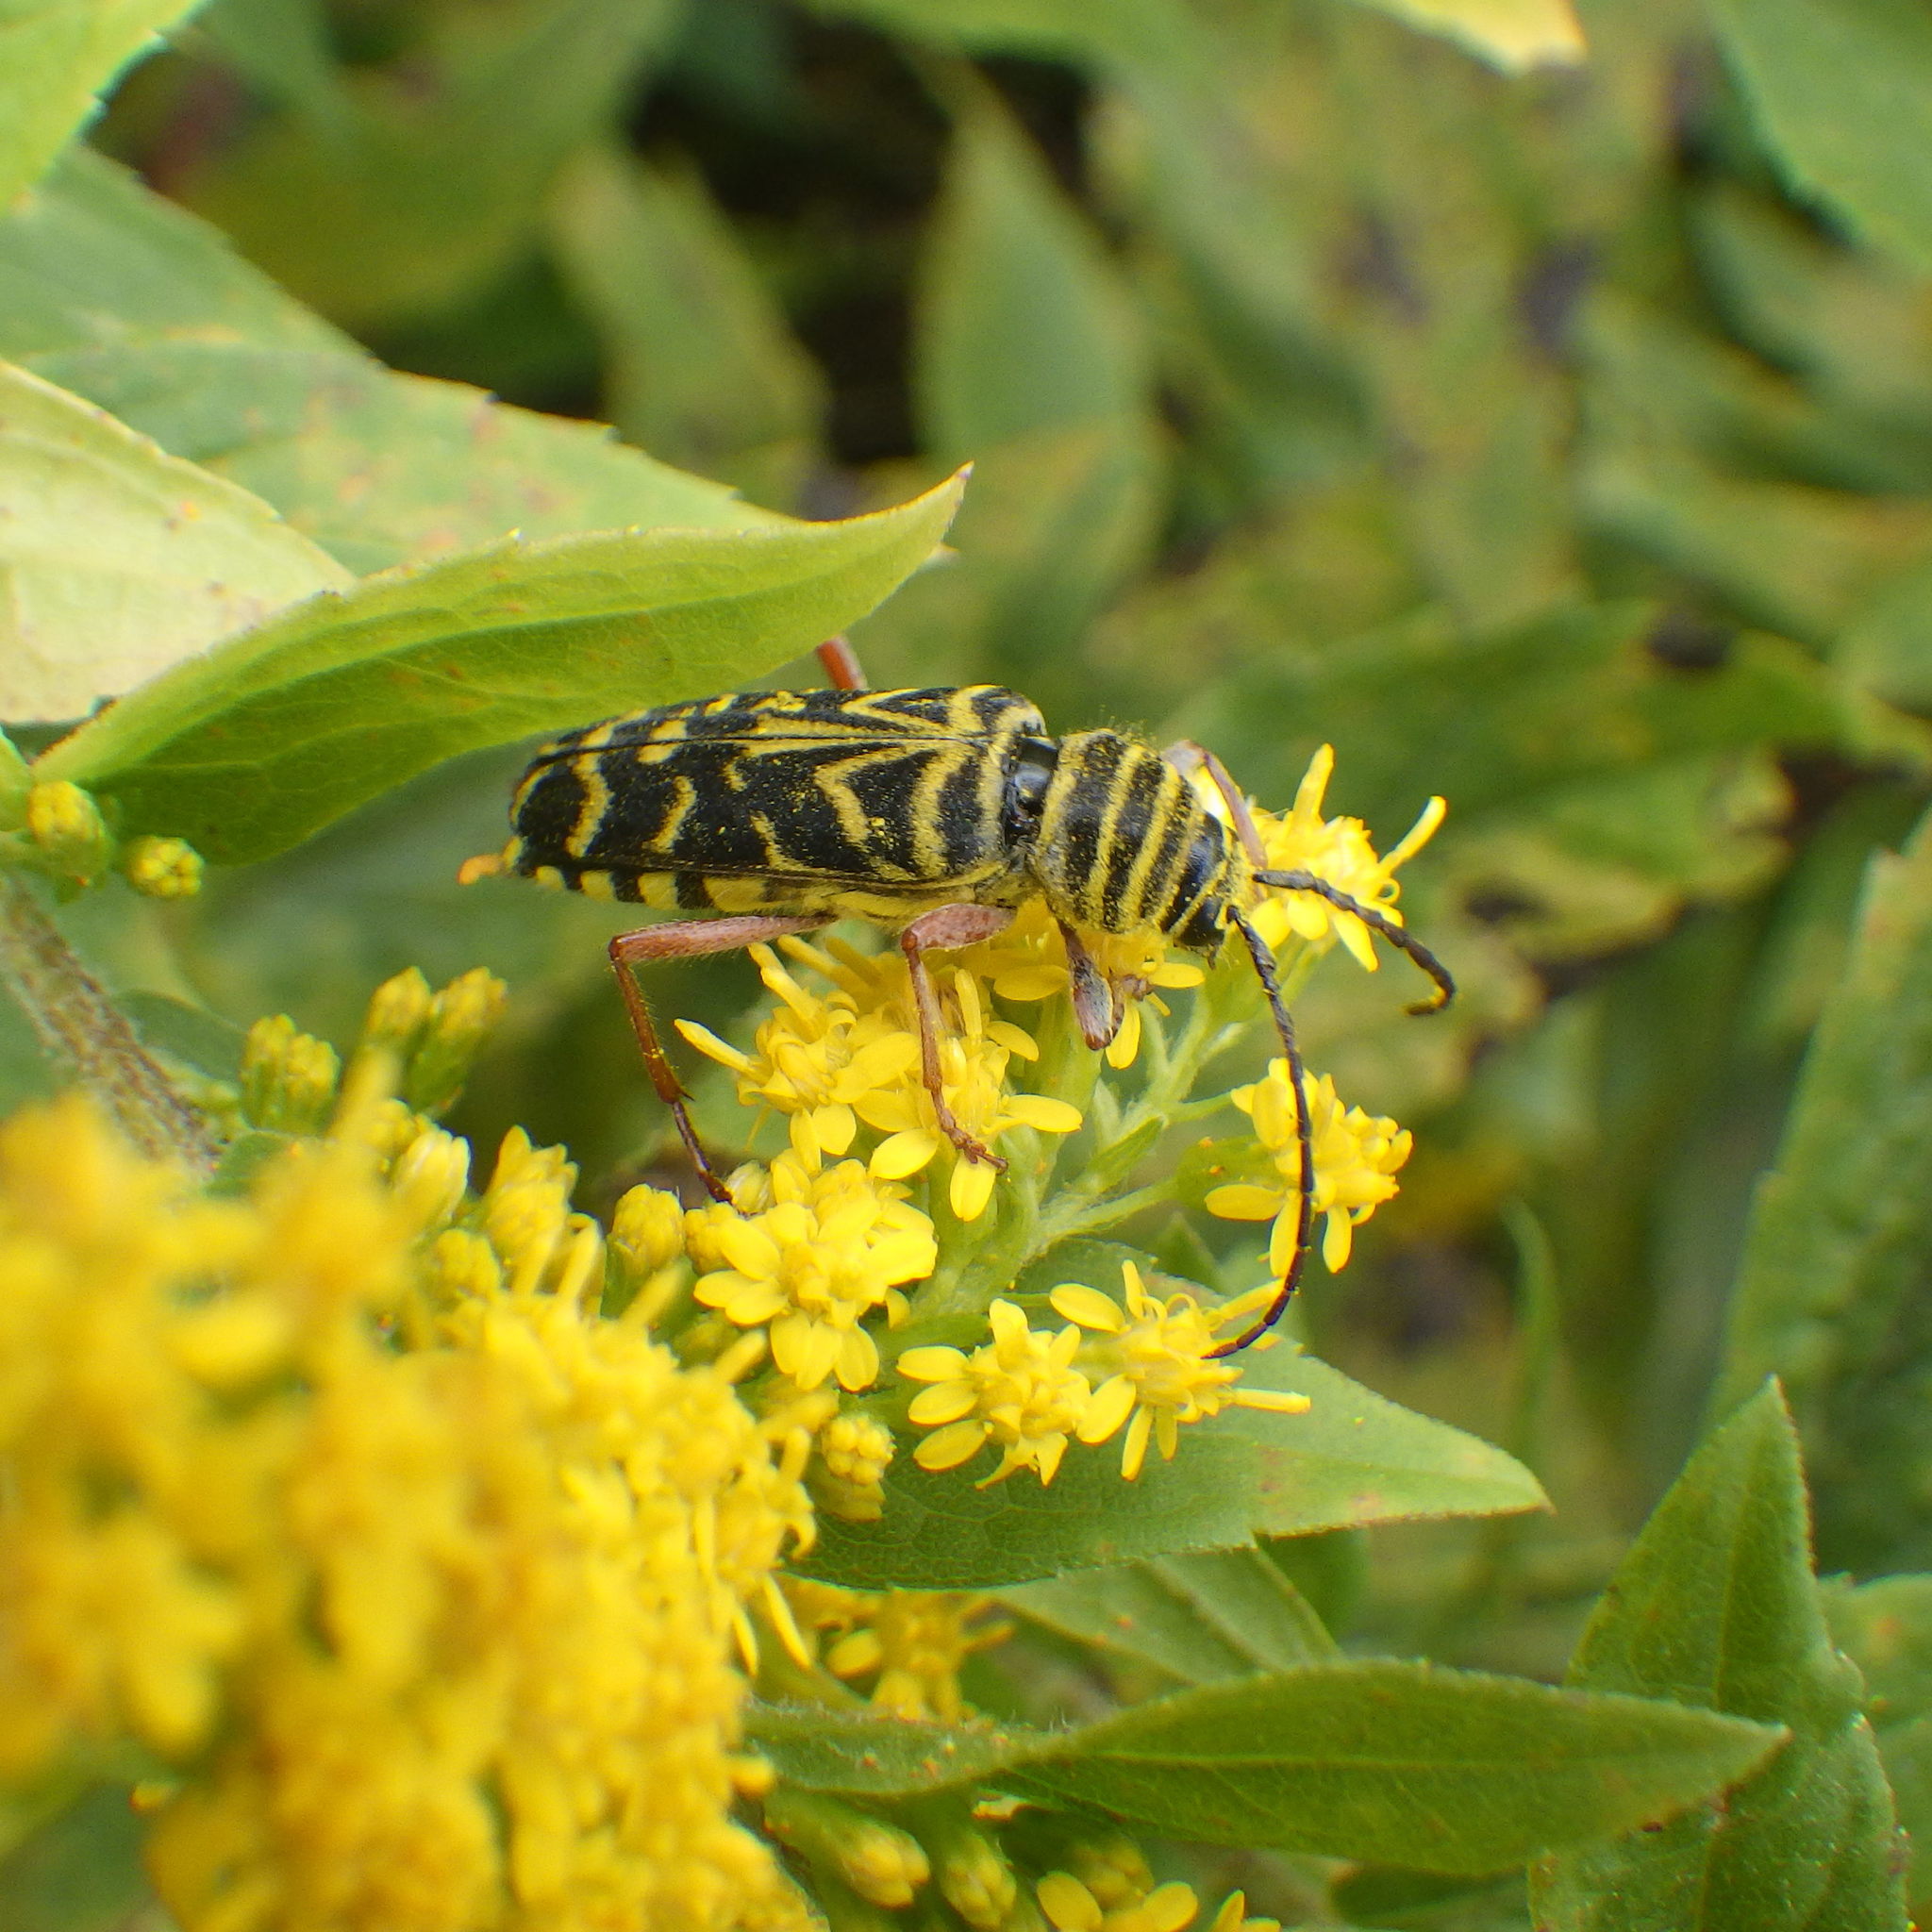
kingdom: Animalia
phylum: Arthropoda
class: Insecta
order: Coleoptera
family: Cerambycidae
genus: Megacyllene
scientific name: Megacyllene robiniae
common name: Locust borer
